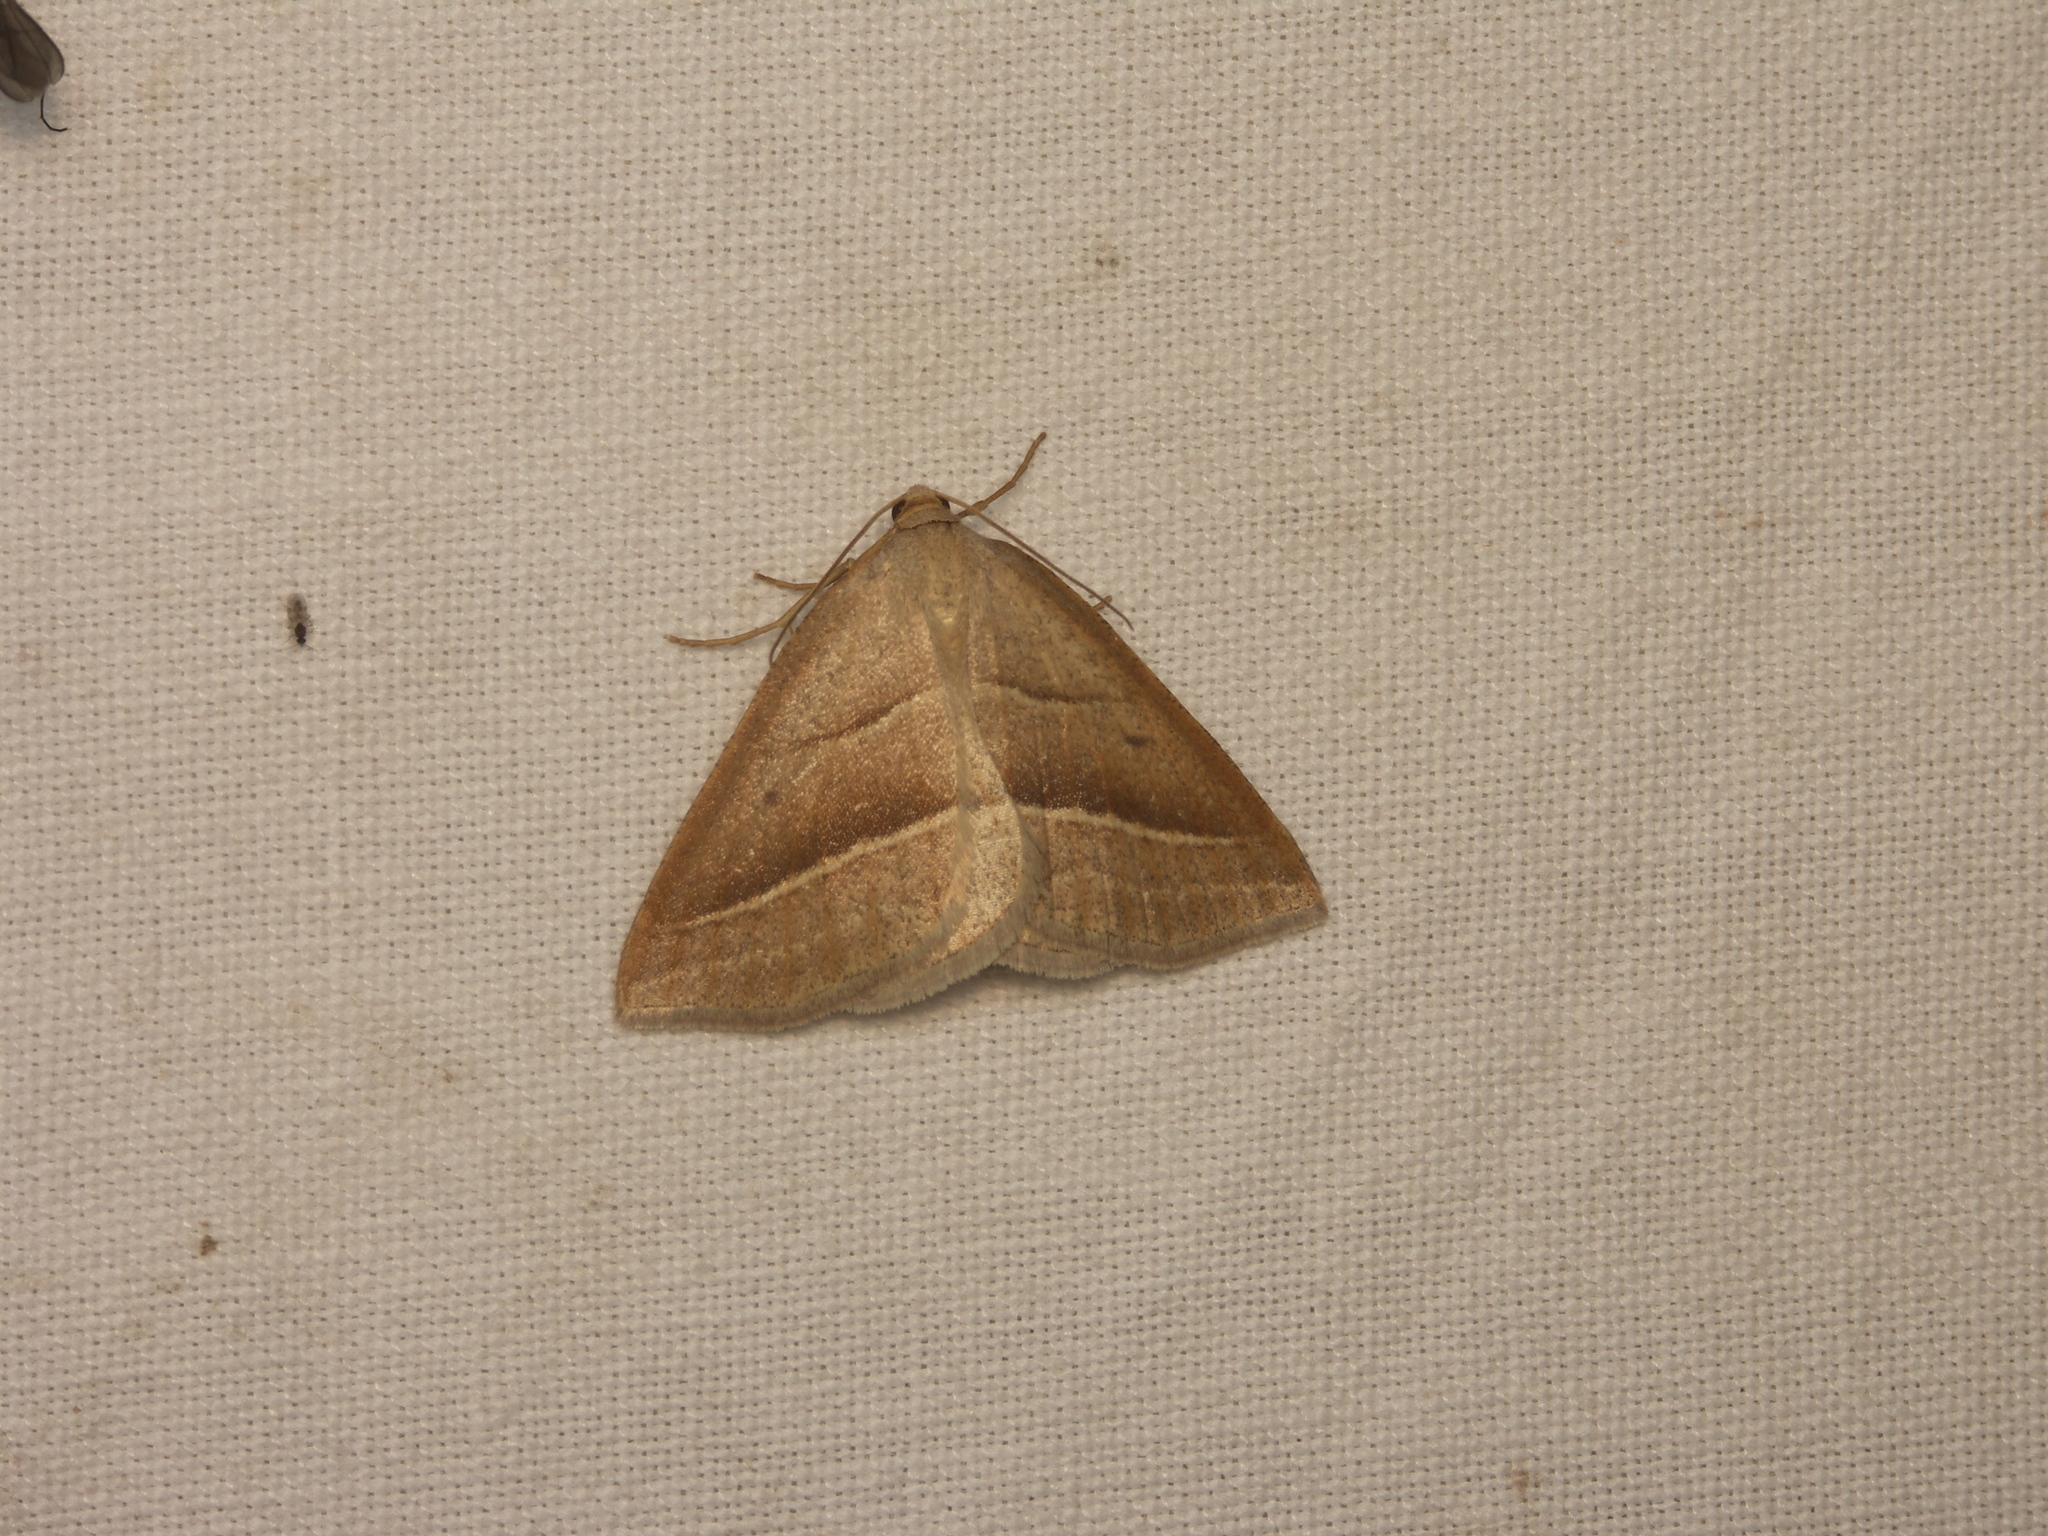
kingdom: Animalia
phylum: Arthropoda
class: Insecta
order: Lepidoptera
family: Pterophoridae
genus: Pterophorus
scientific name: Pterophorus Petrophora chlorosata
